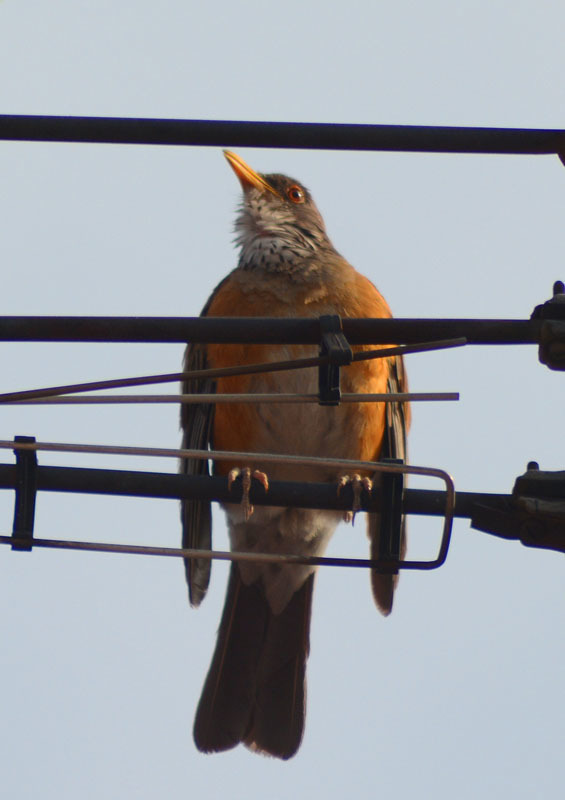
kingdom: Animalia
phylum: Chordata
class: Aves
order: Passeriformes
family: Turdidae
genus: Turdus
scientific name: Turdus rufopalliatus
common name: Rufous-backed robin
